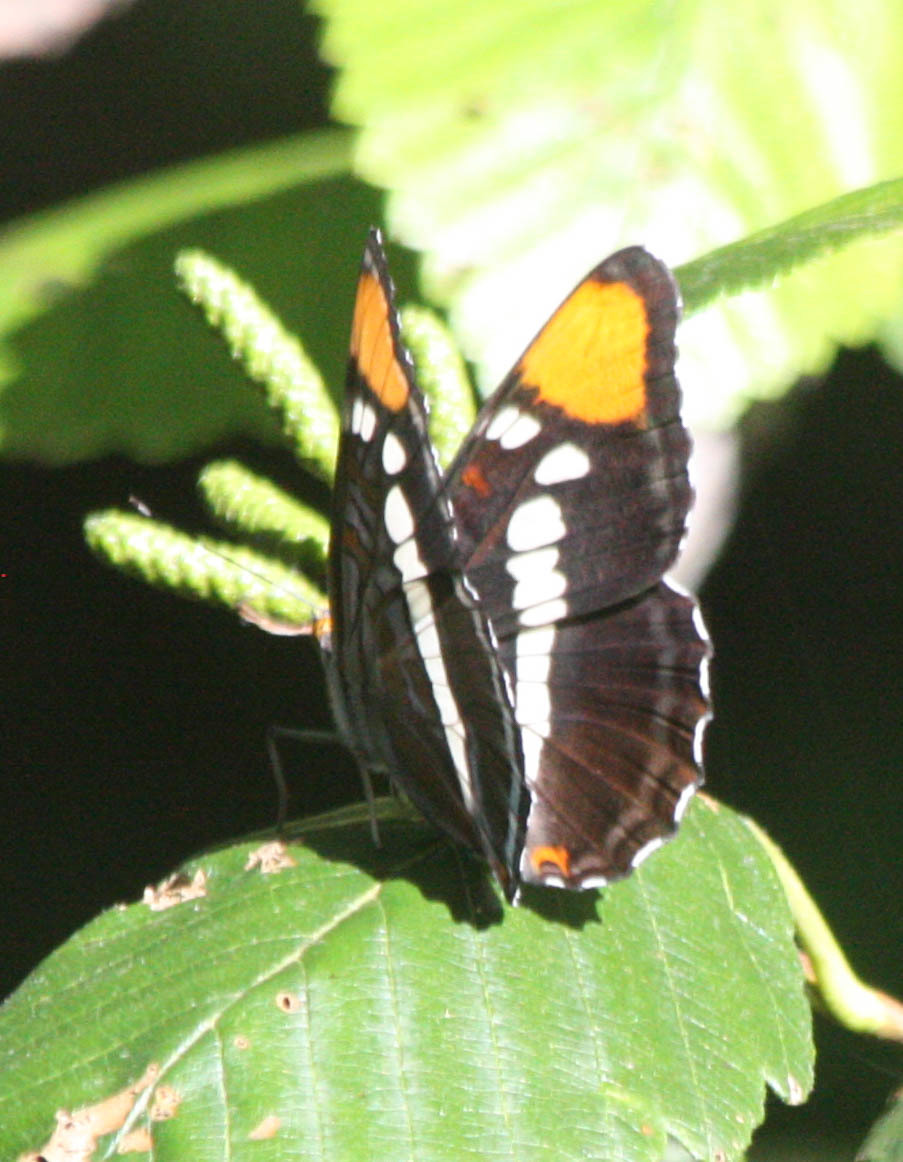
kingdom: Animalia
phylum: Arthropoda
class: Insecta
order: Lepidoptera
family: Nymphalidae
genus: Limenitis
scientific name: Limenitis bredowii
